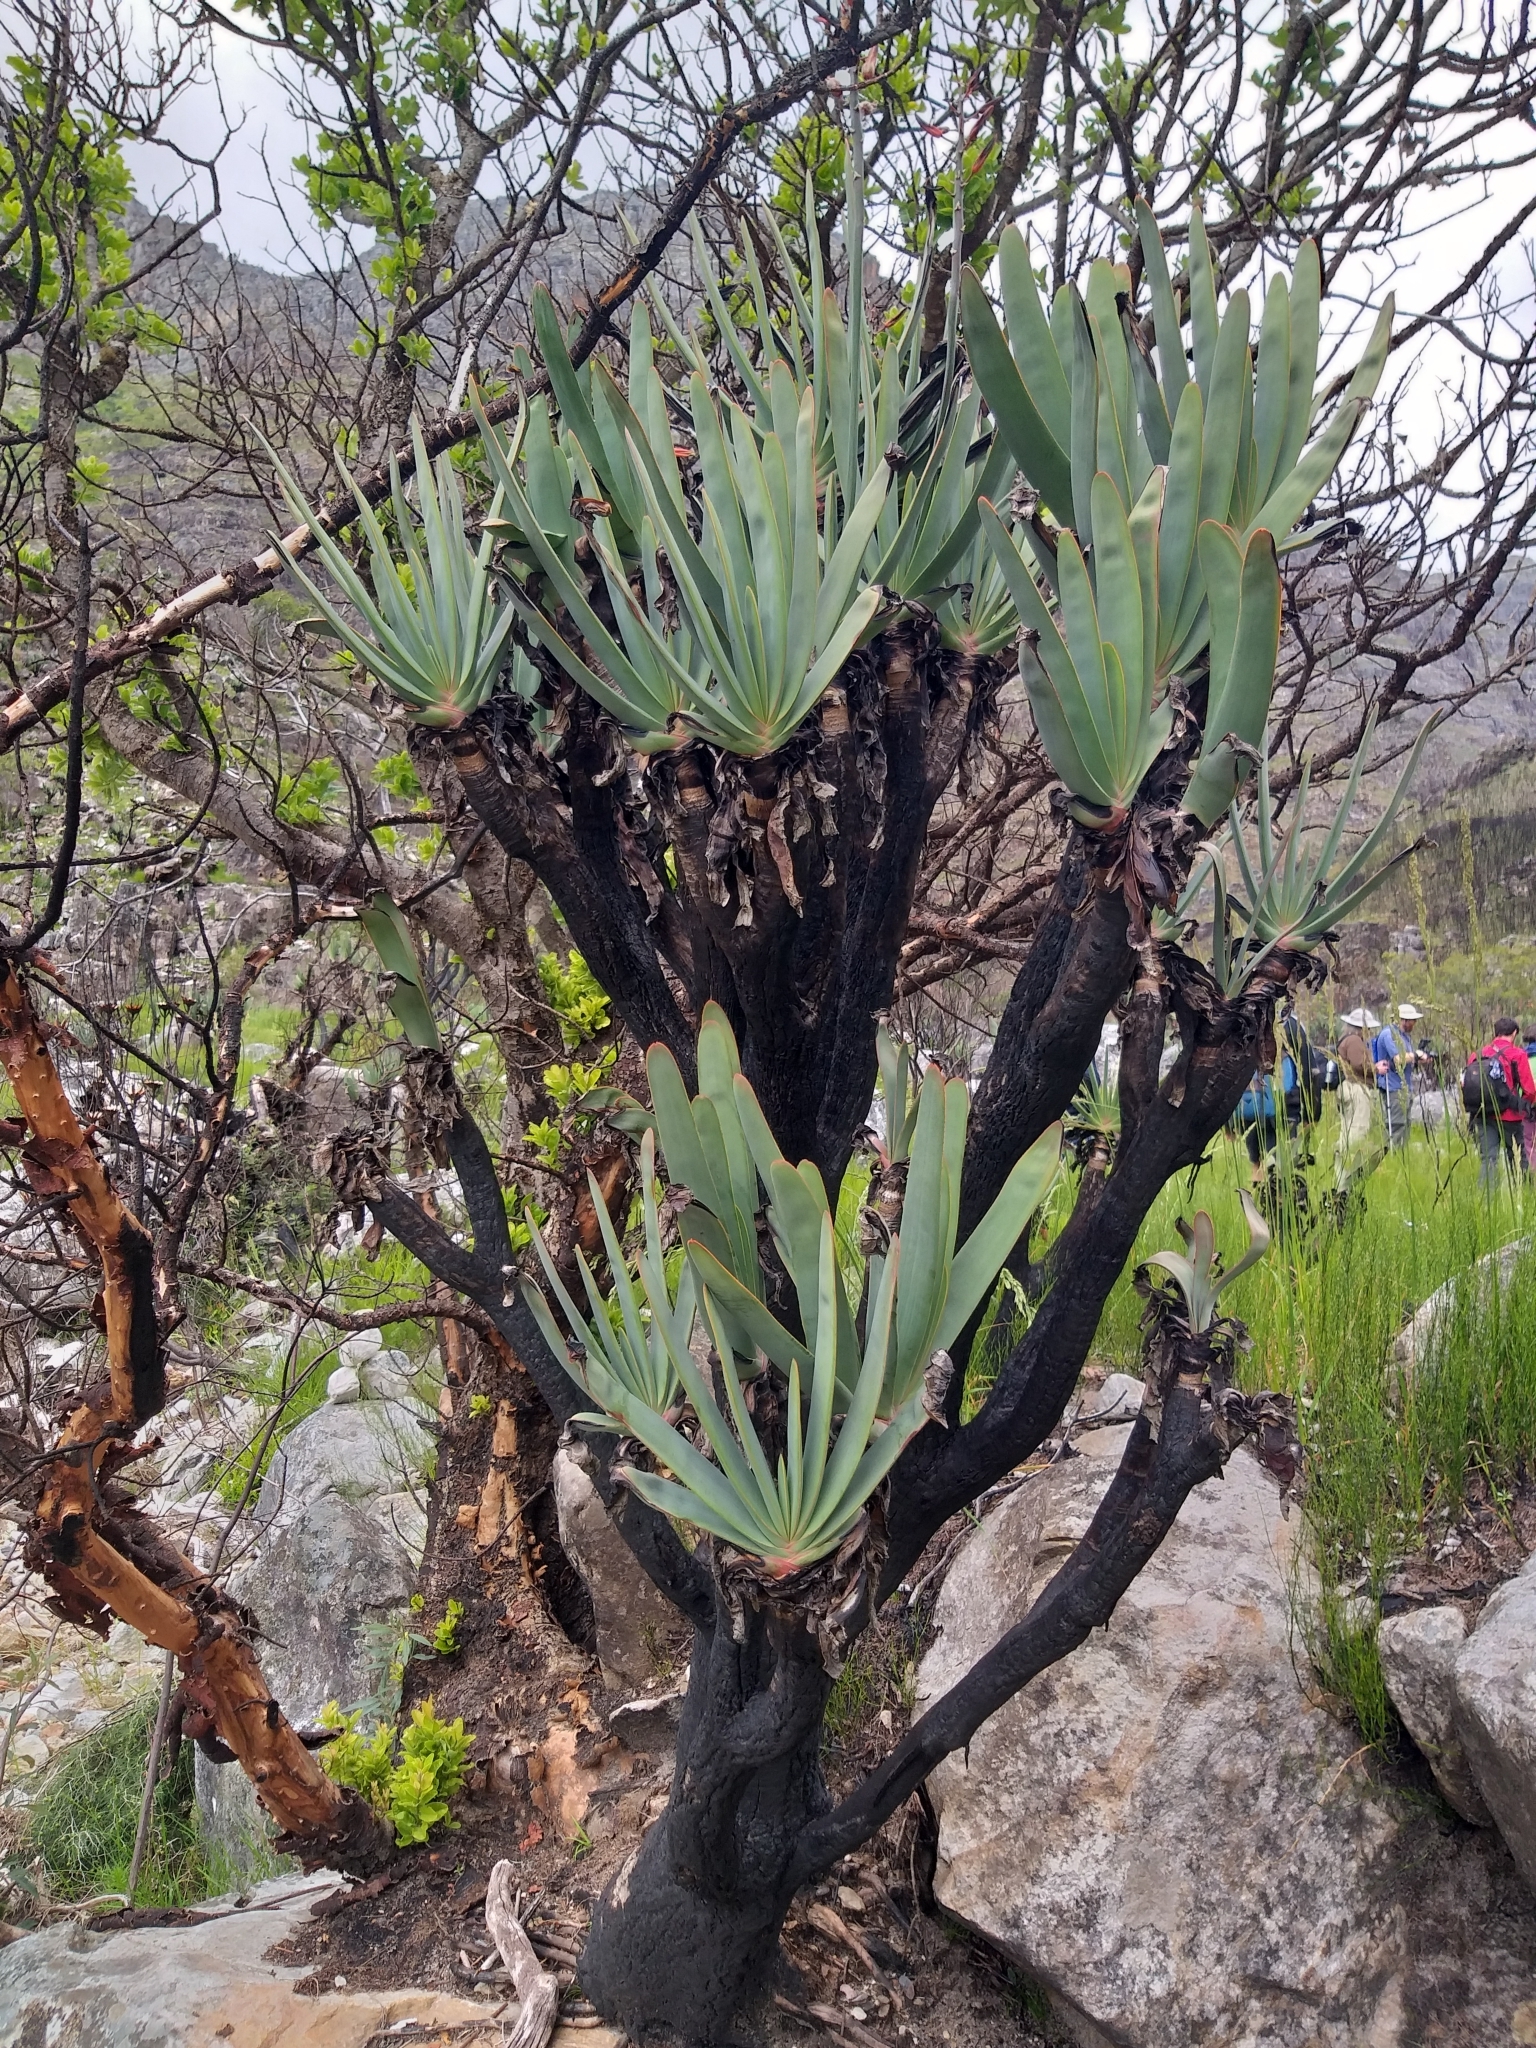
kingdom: Plantae
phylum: Tracheophyta
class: Liliopsida
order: Asparagales
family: Asphodelaceae
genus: Kumara
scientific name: Kumara plicatilis
